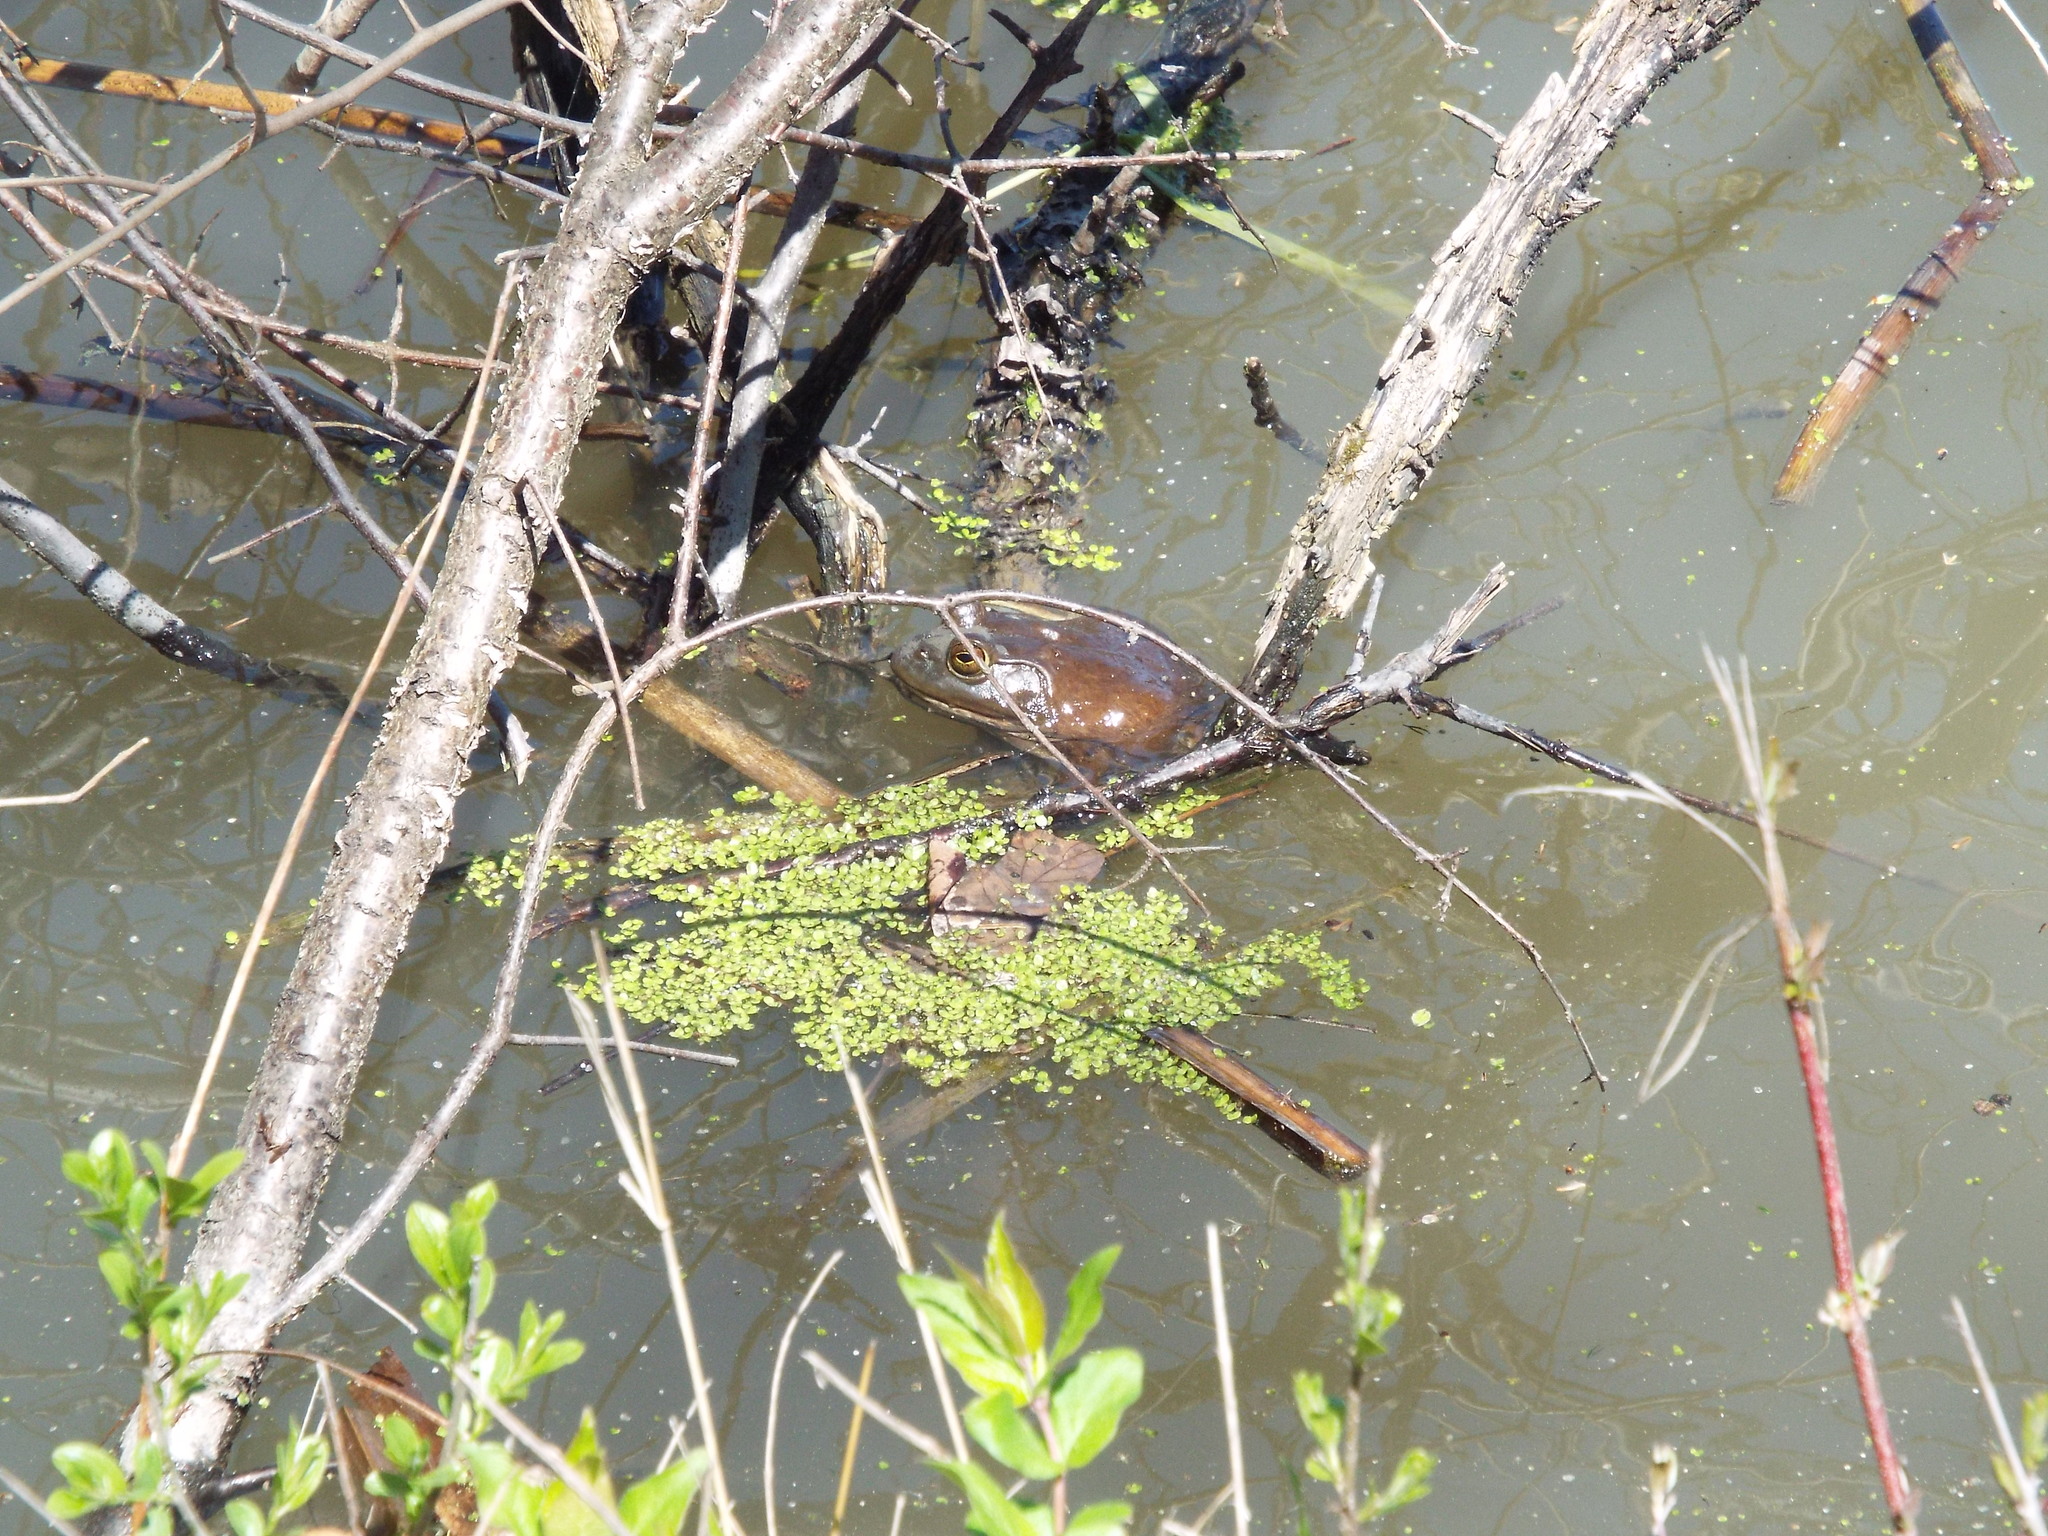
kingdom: Animalia
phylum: Chordata
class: Amphibia
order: Anura
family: Ranidae
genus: Lithobates
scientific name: Lithobates catesbeianus
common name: American bullfrog
